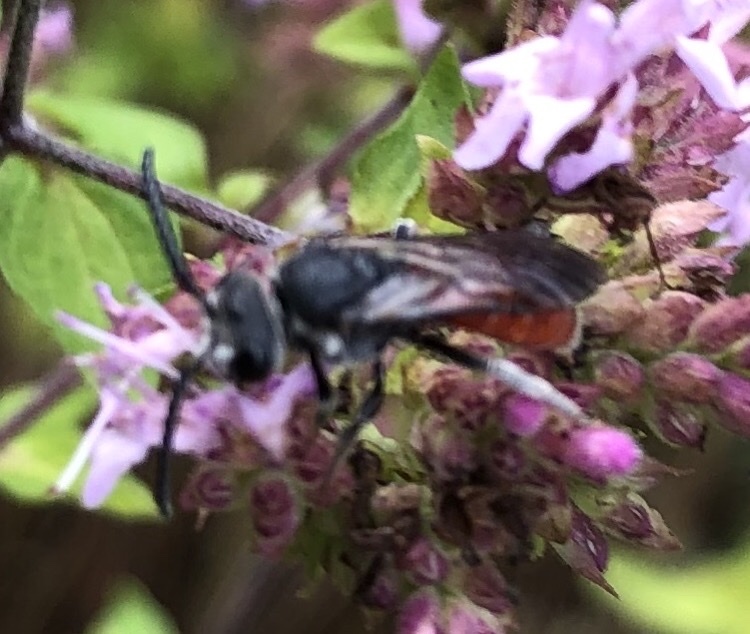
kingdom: Animalia
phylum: Arthropoda
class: Insecta
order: Hymenoptera
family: Halictidae
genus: Sphecodes
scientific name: Sphecodes albilabris
